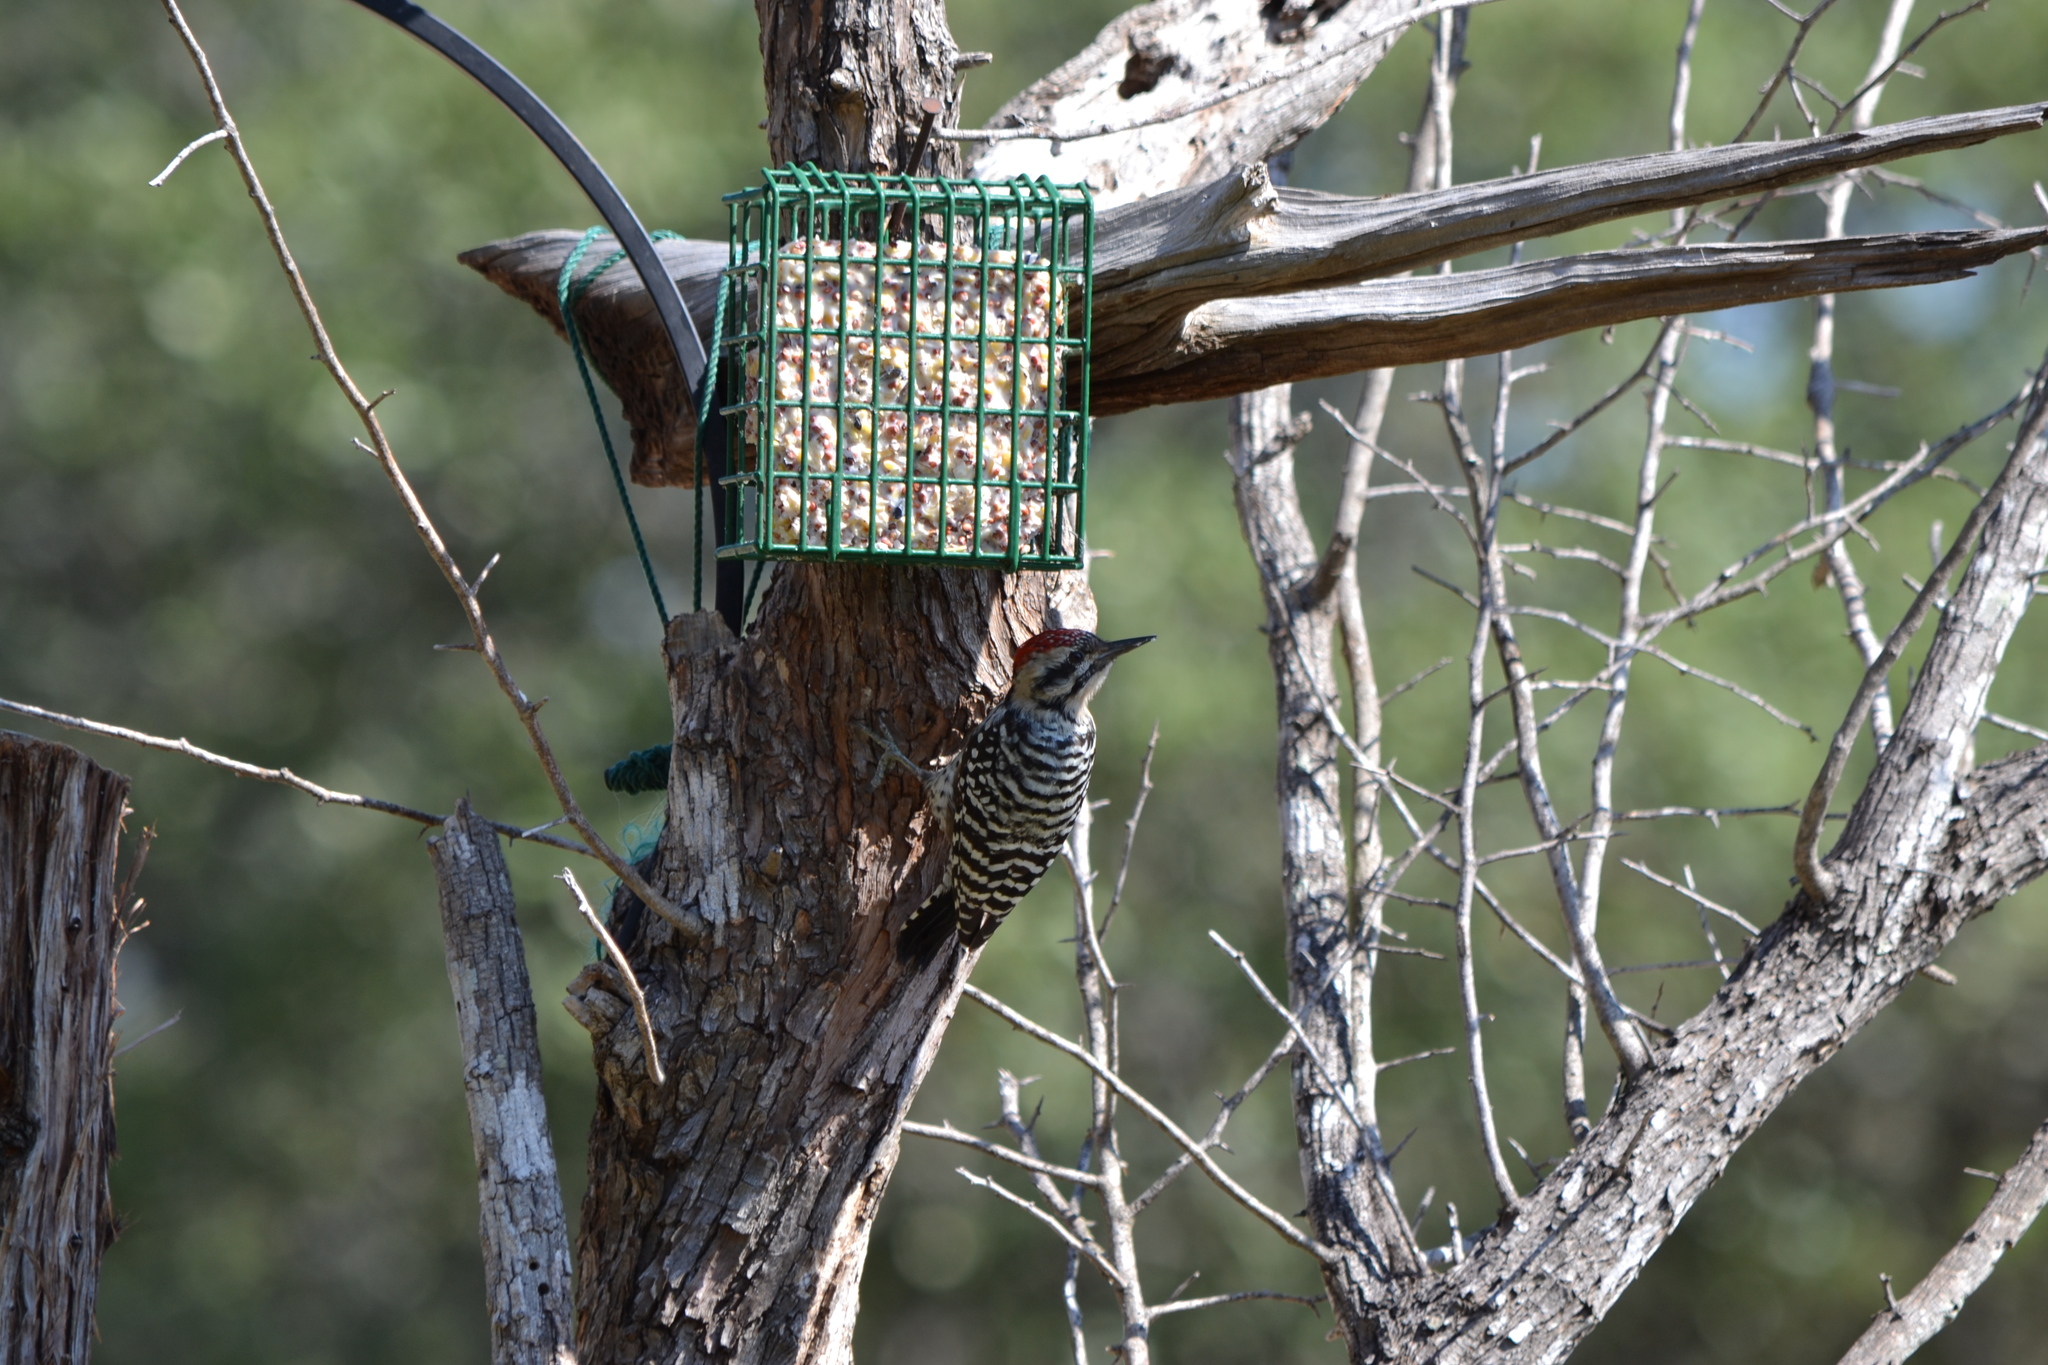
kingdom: Animalia
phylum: Chordata
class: Aves
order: Piciformes
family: Picidae
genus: Dryobates
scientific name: Dryobates scalaris
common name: Ladder-backed woodpecker
